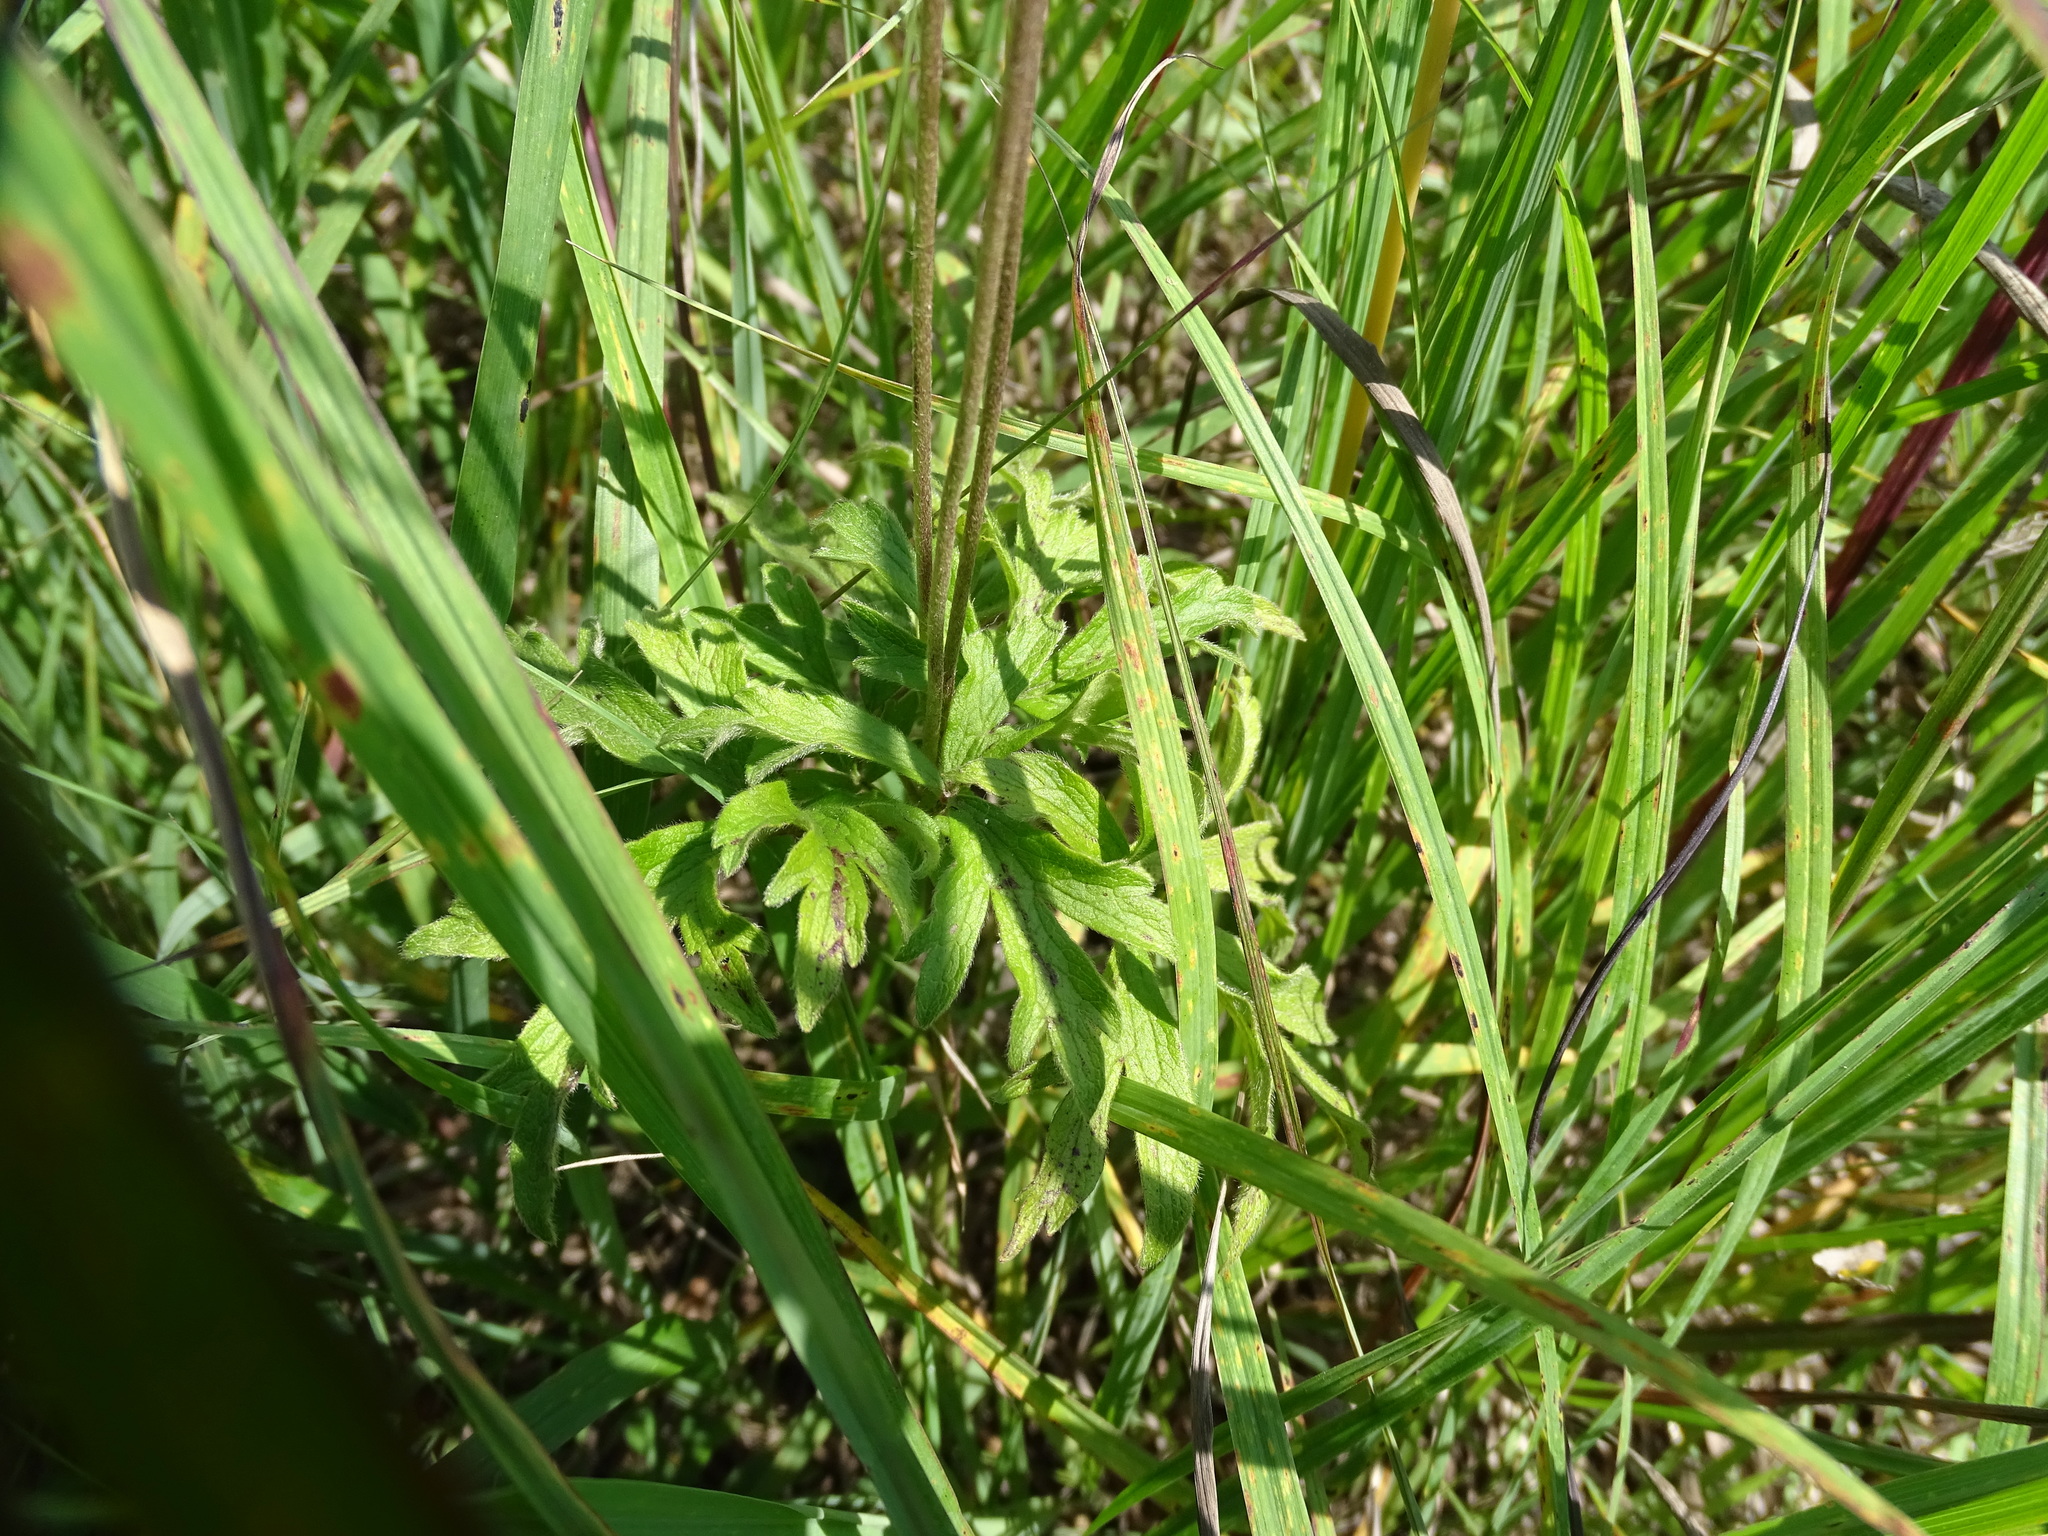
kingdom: Plantae
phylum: Tracheophyta
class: Magnoliopsida
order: Ranunculales
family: Ranunculaceae
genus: Anemone
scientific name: Anemone cylindrica
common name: Candle anemone
